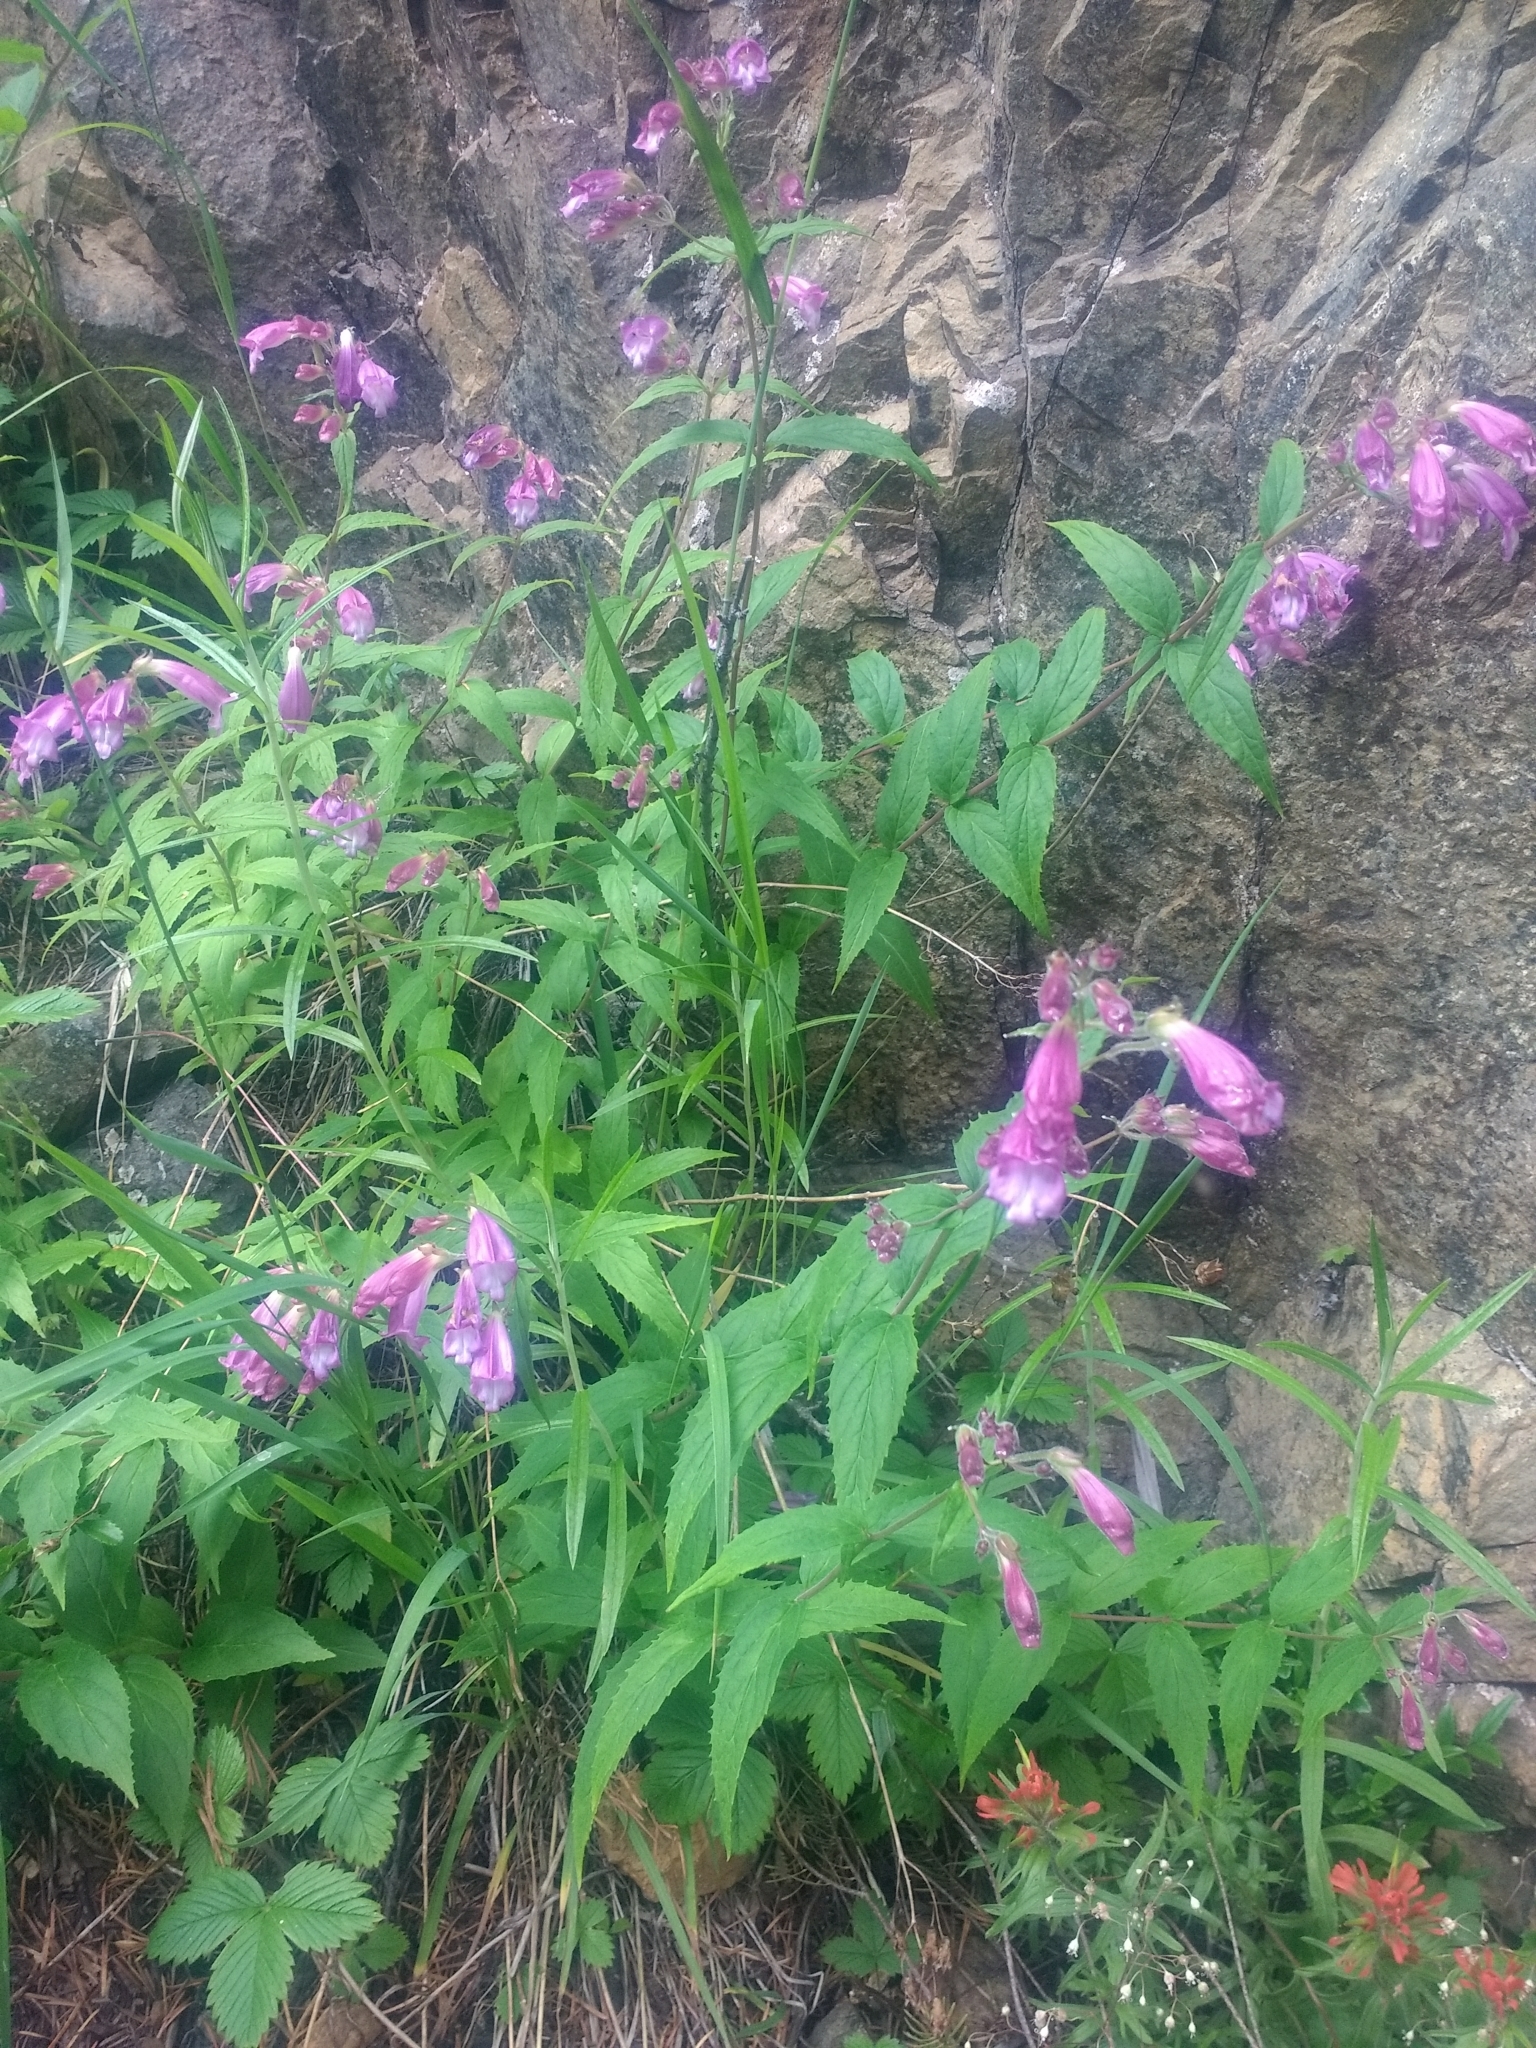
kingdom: Plantae
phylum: Tracheophyta
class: Magnoliopsida
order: Lamiales
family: Plantaginaceae
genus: Nothochelone
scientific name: Nothochelone nemorosa
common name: Woodland beardtongue
